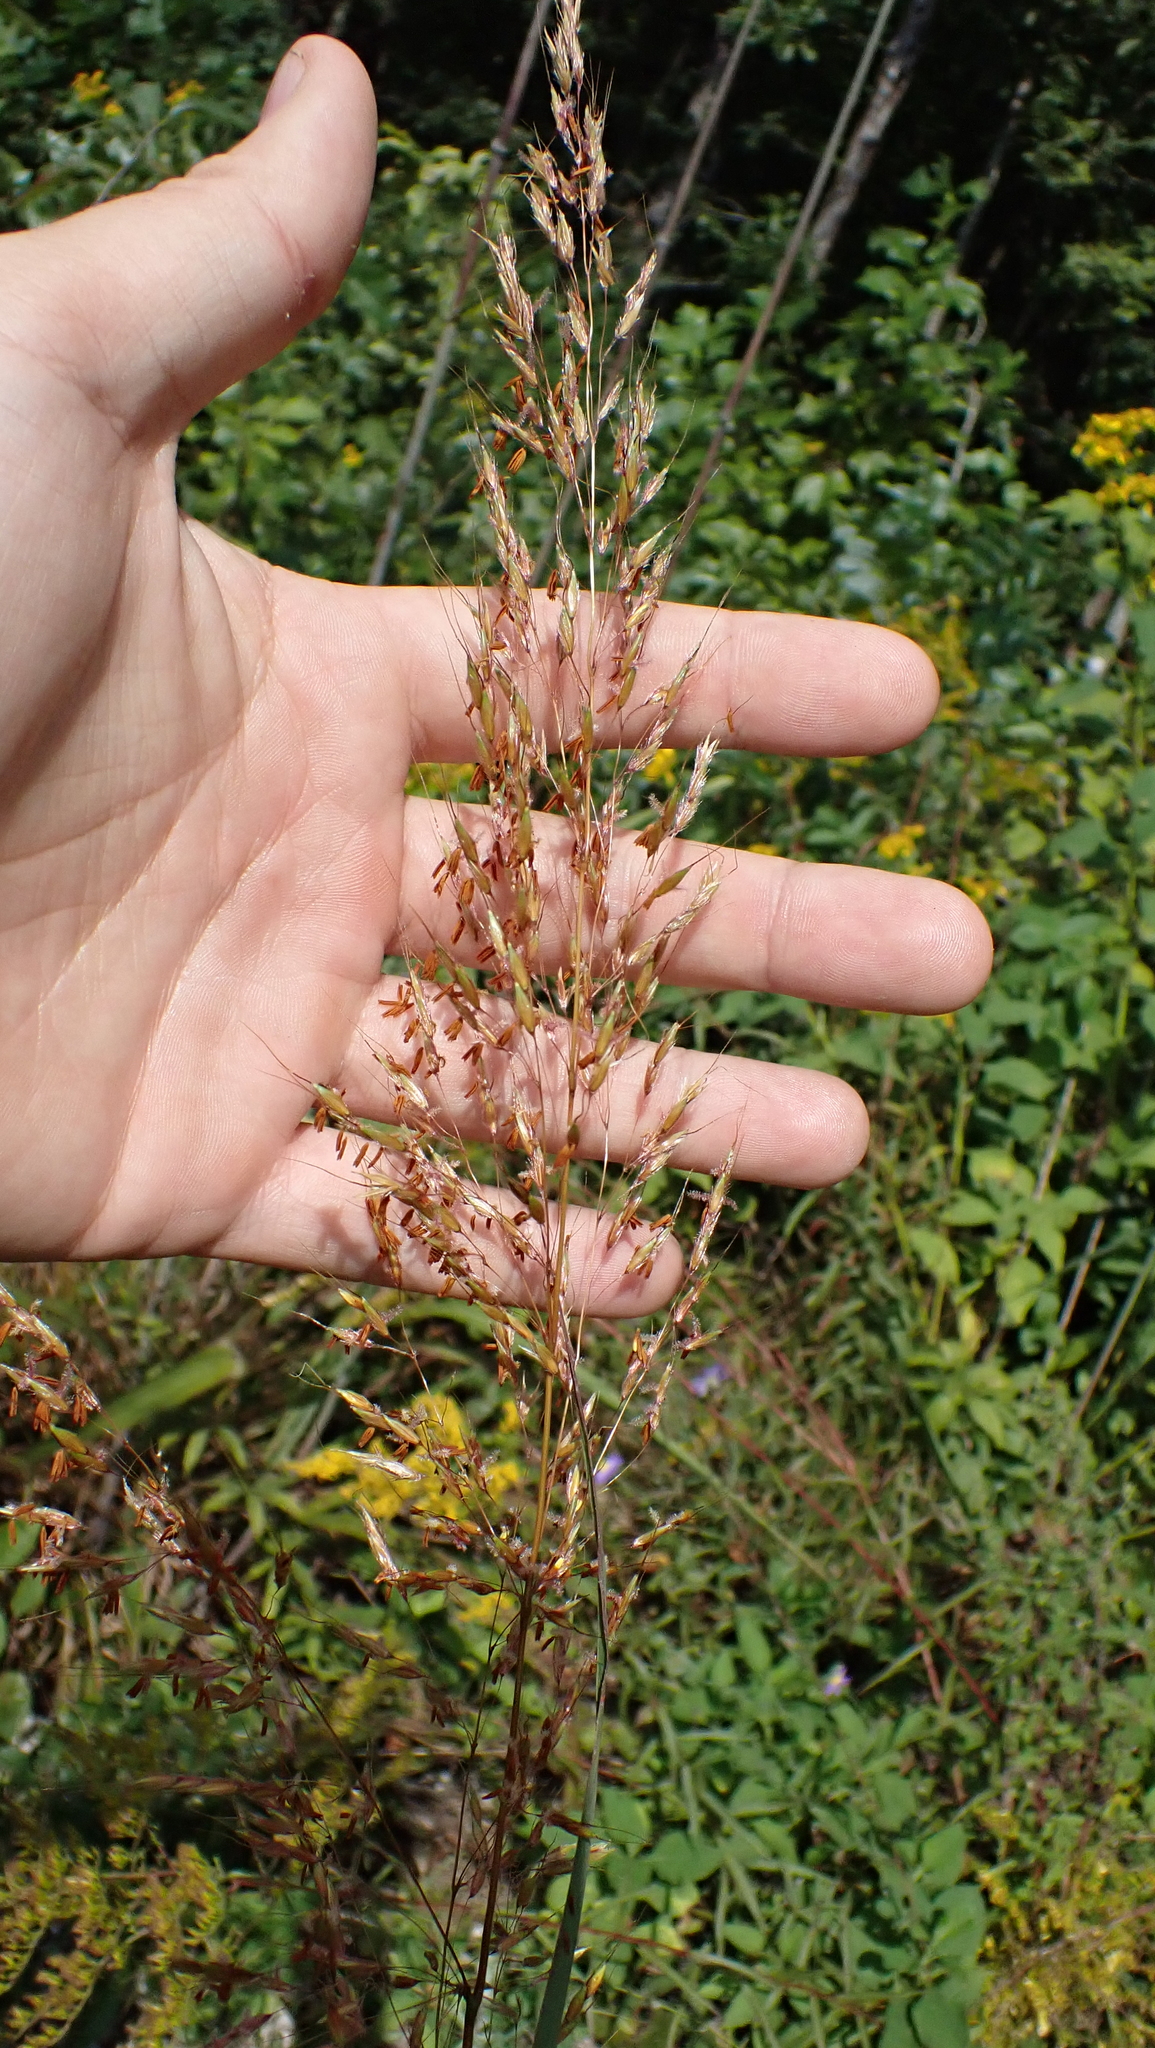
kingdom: Plantae
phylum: Tracheophyta
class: Liliopsida
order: Poales
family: Poaceae
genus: Sorghastrum
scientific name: Sorghastrum nutans
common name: Indian grass
